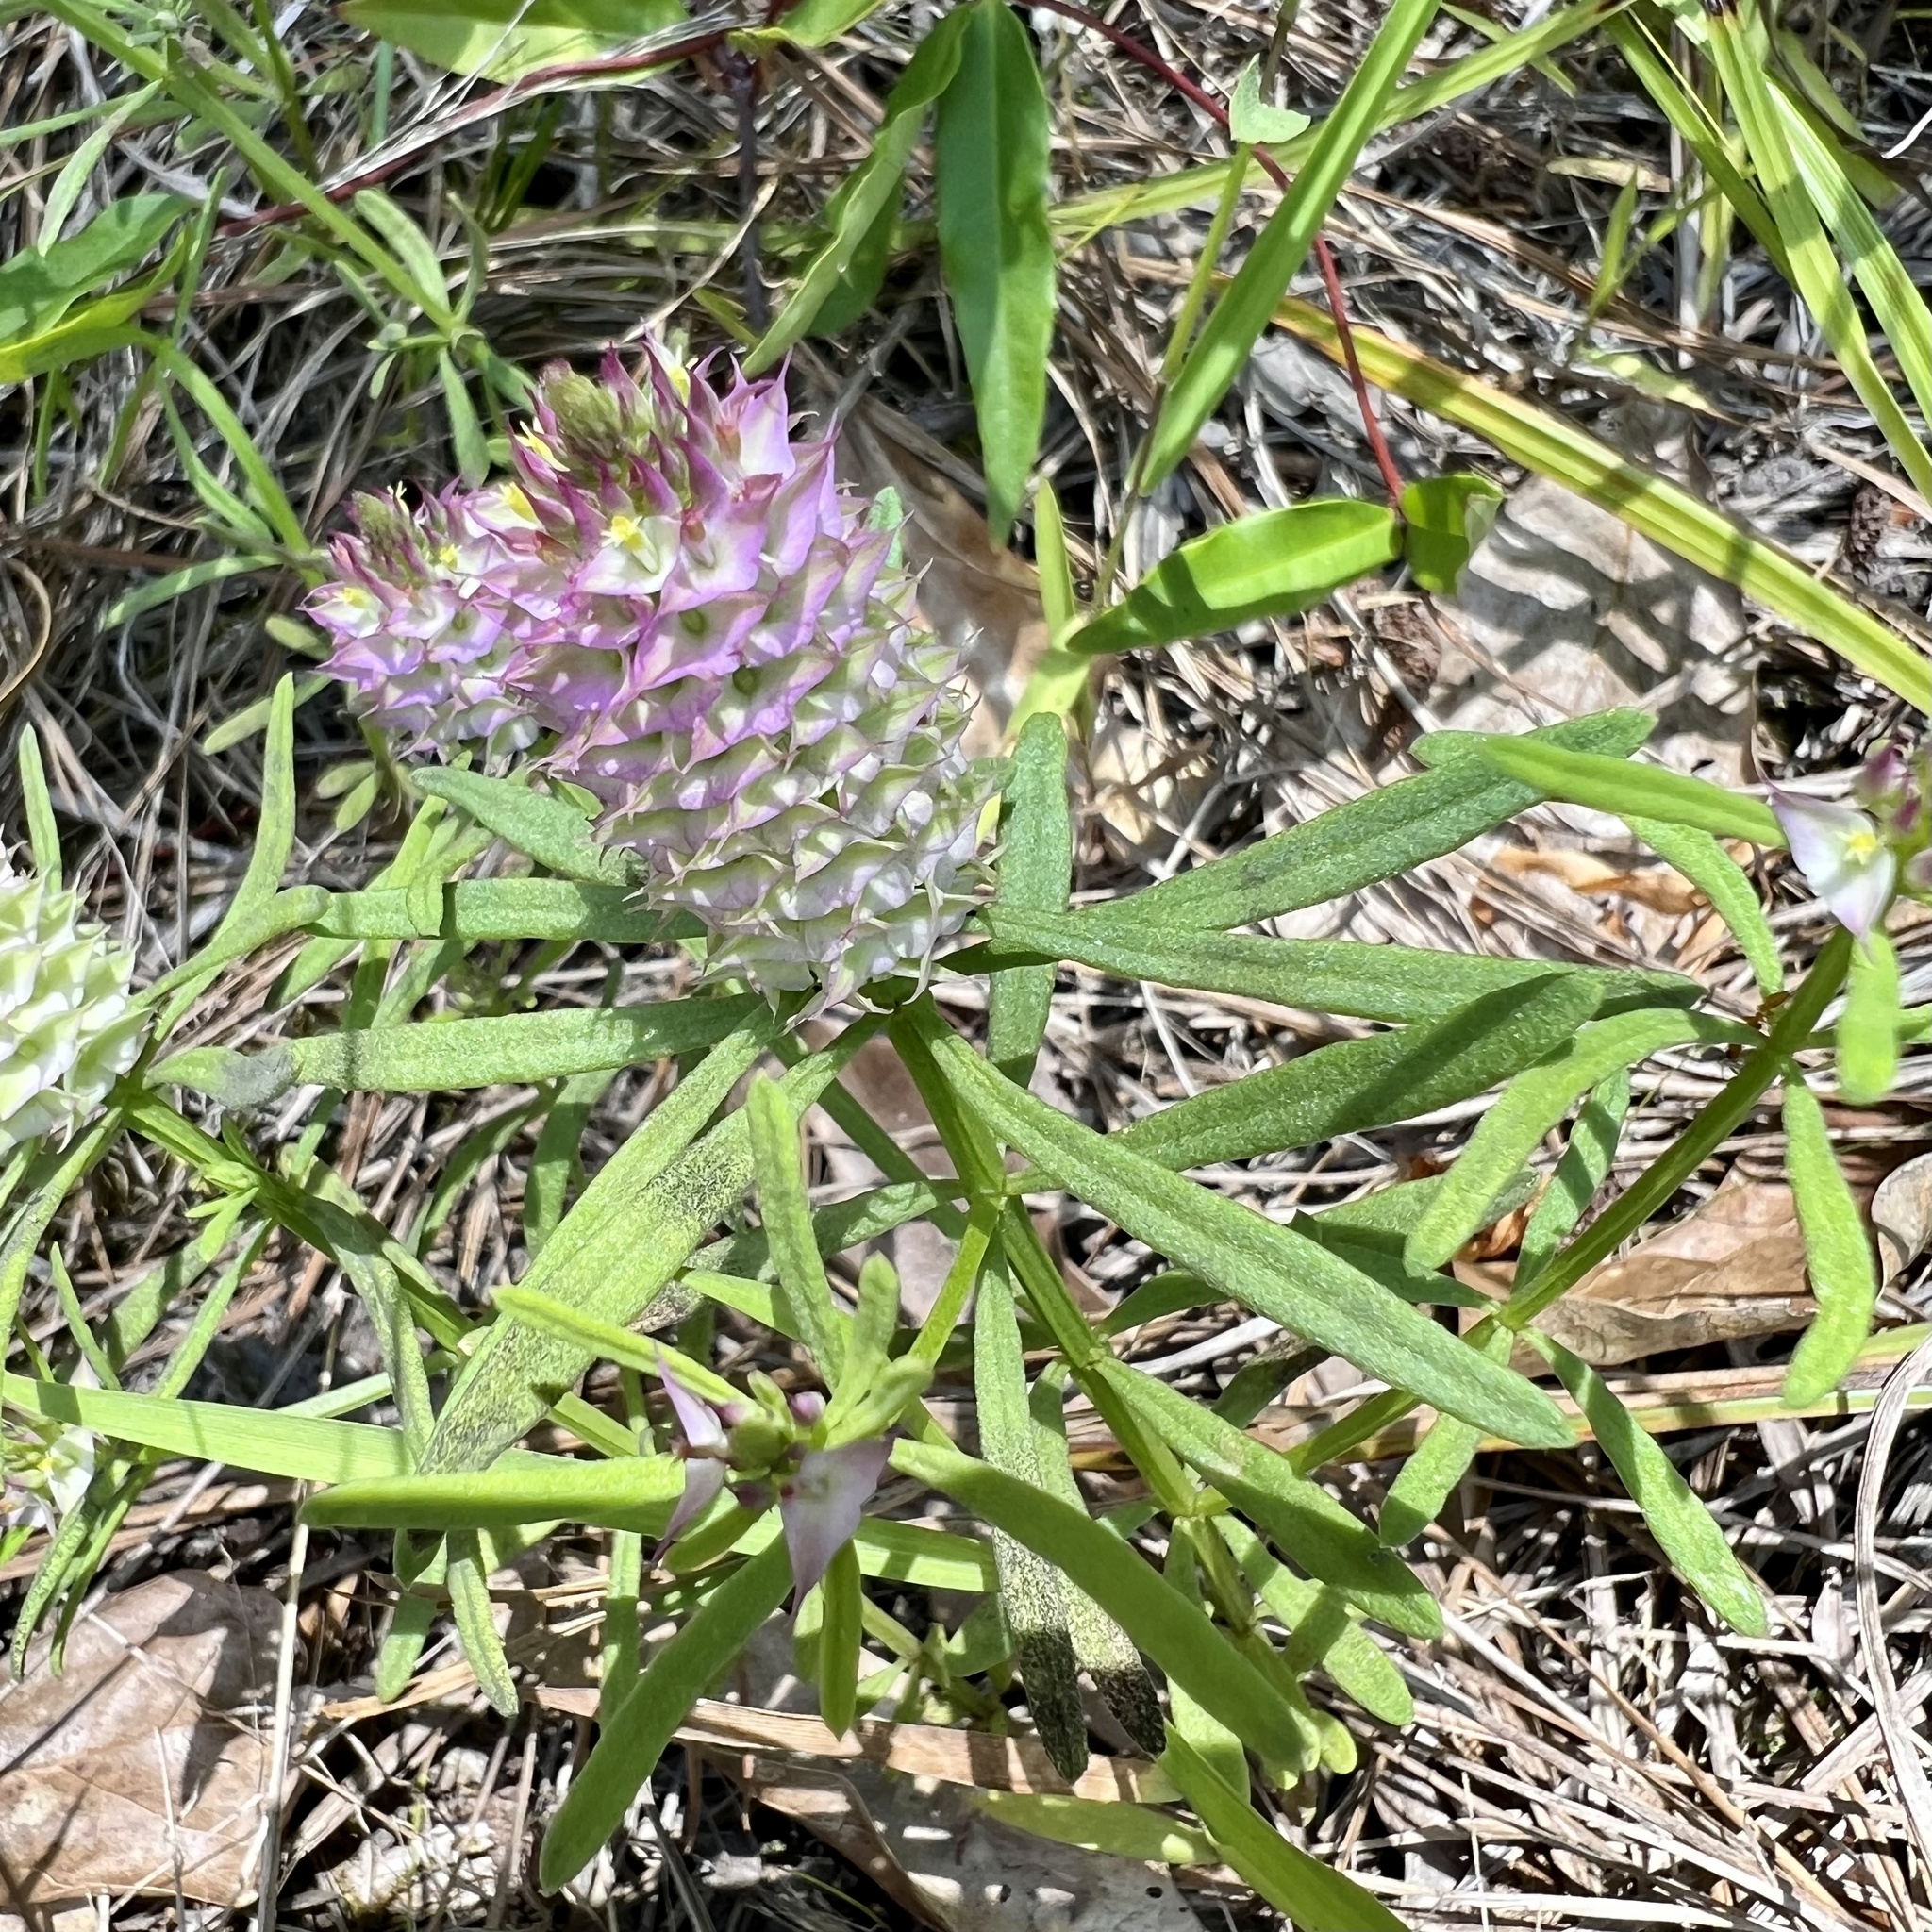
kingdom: Plantae
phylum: Tracheophyta
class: Magnoliopsida
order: Fabales
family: Polygalaceae
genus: Polygala
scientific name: Polygala cruciata
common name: Drumheads
